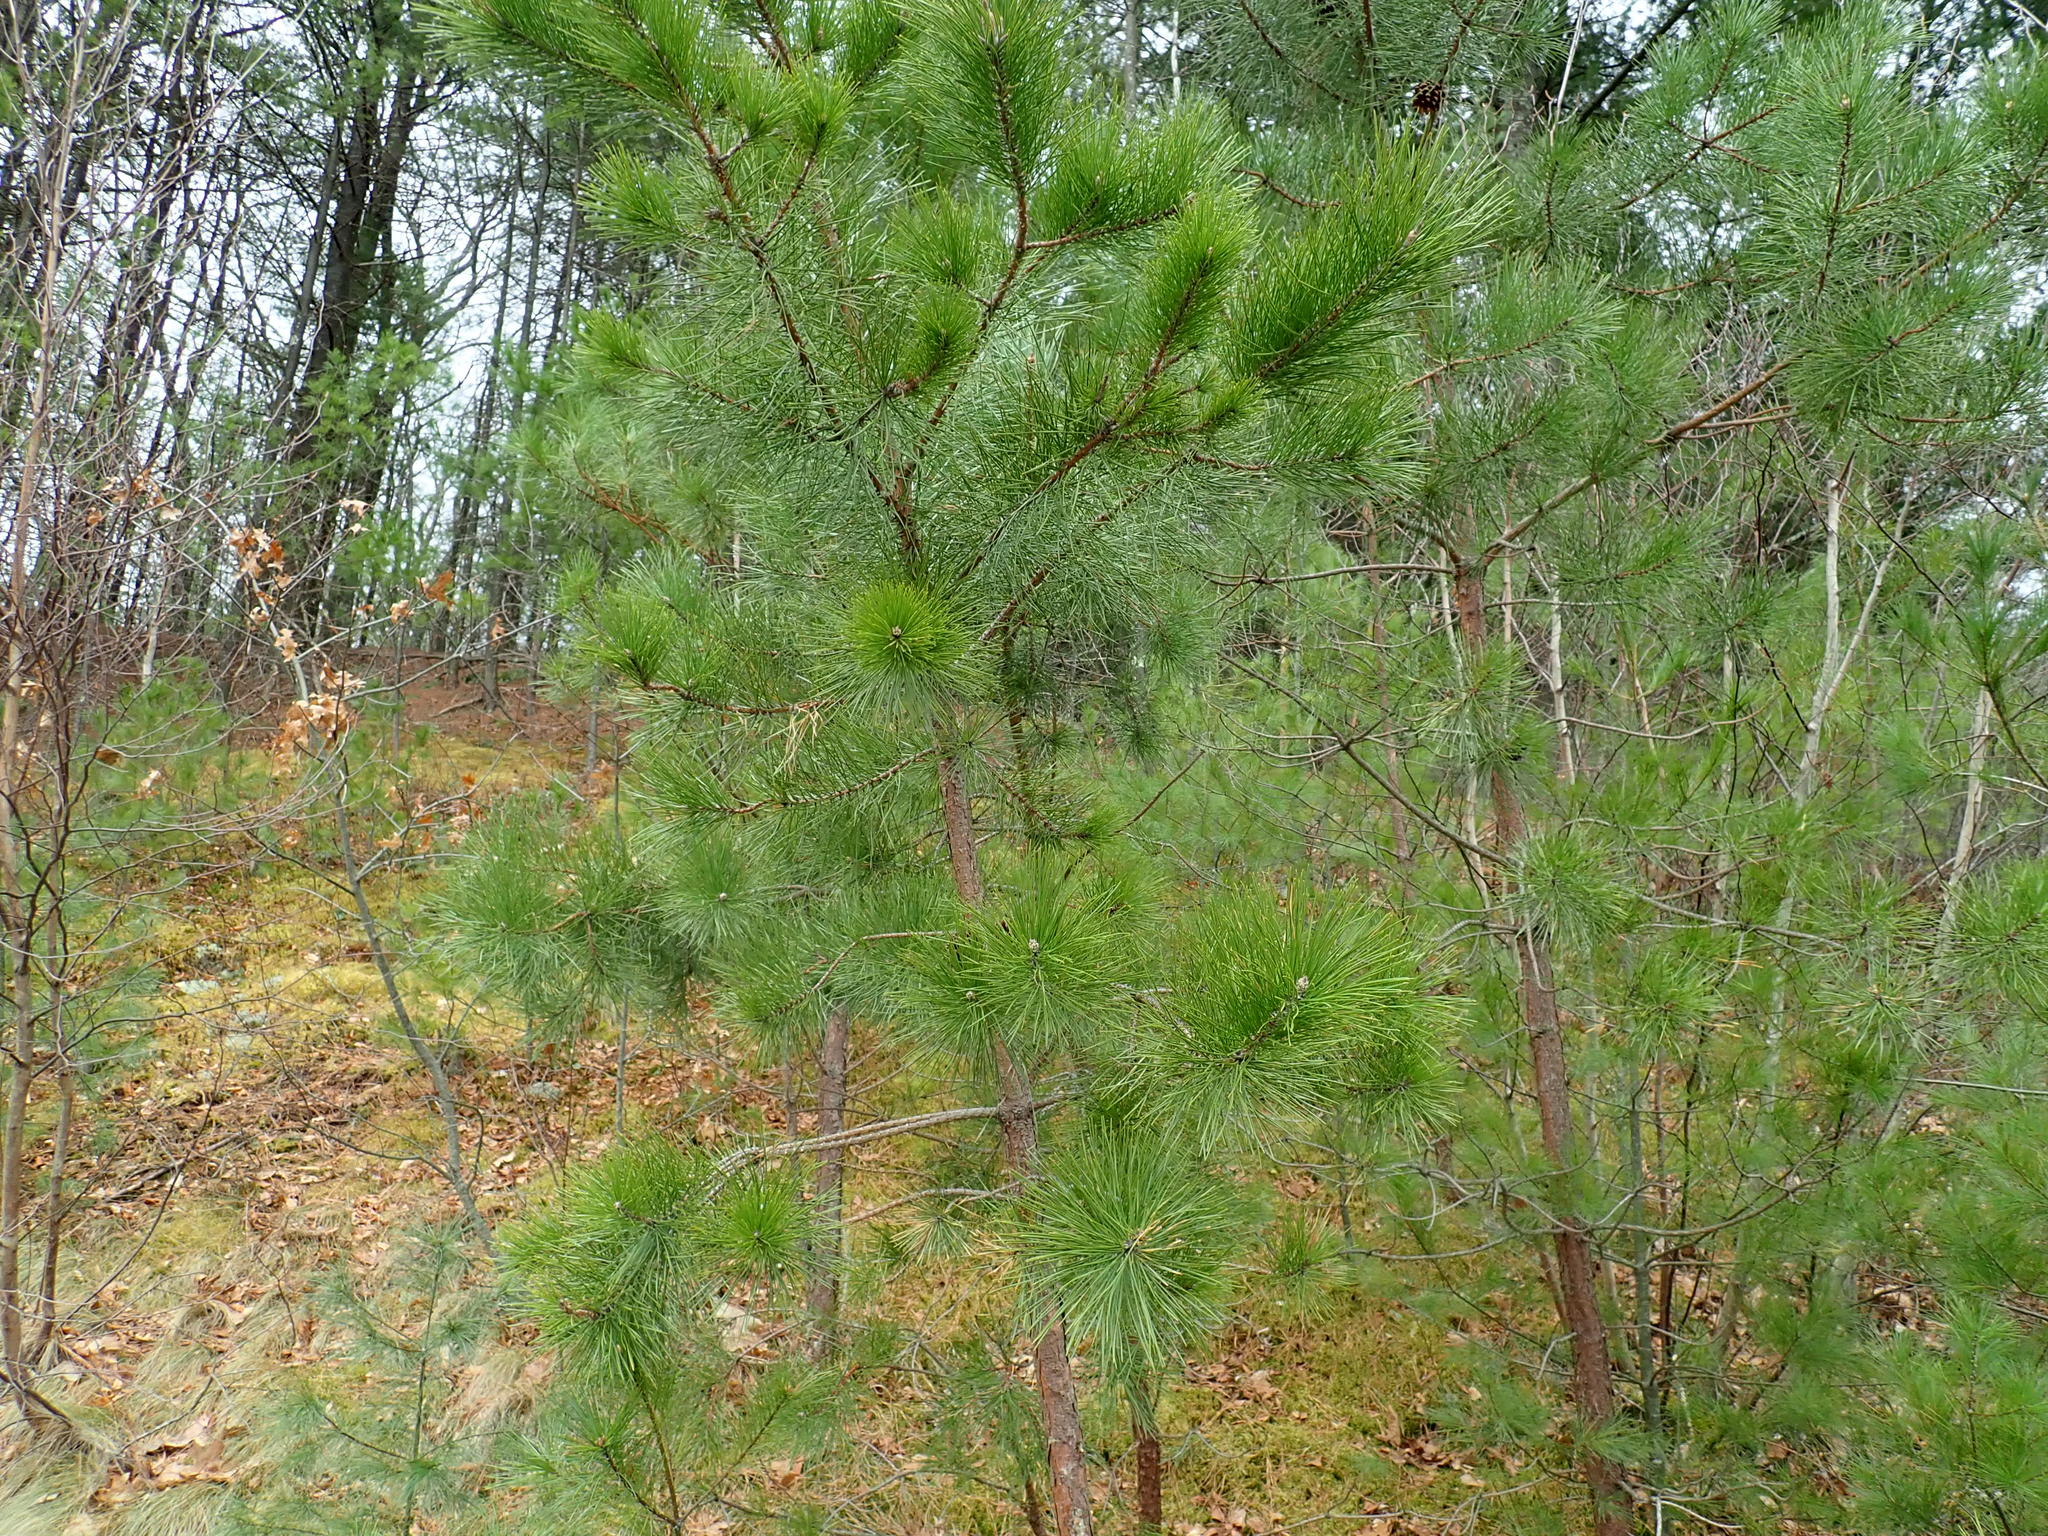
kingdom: Plantae
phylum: Tracheophyta
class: Pinopsida
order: Pinales
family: Pinaceae
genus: Pinus
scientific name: Pinus rigida
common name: Pitch pine
